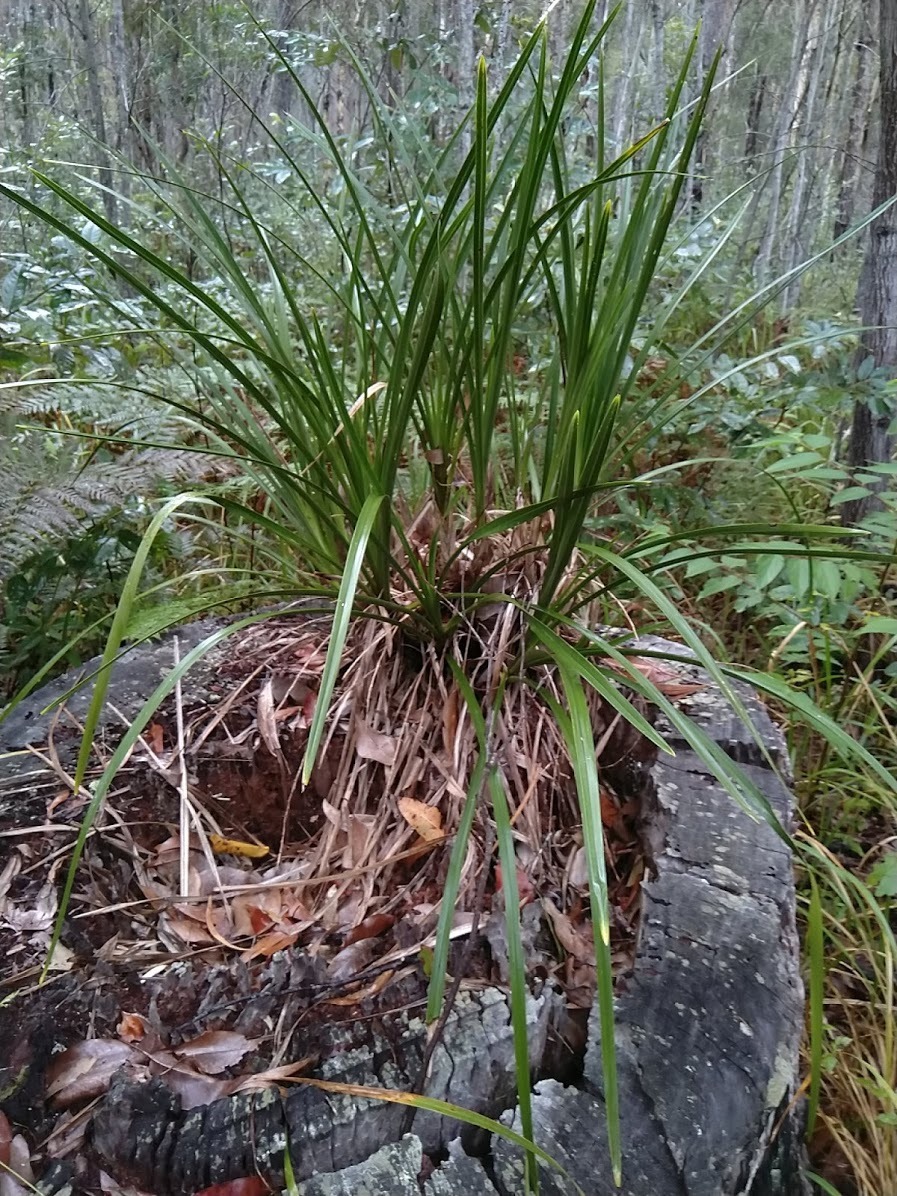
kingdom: Plantae
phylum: Tracheophyta
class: Liliopsida
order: Asparagales
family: Orchidaceae
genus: Cymbidium
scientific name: Cymbidium suave
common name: Snake orchid
